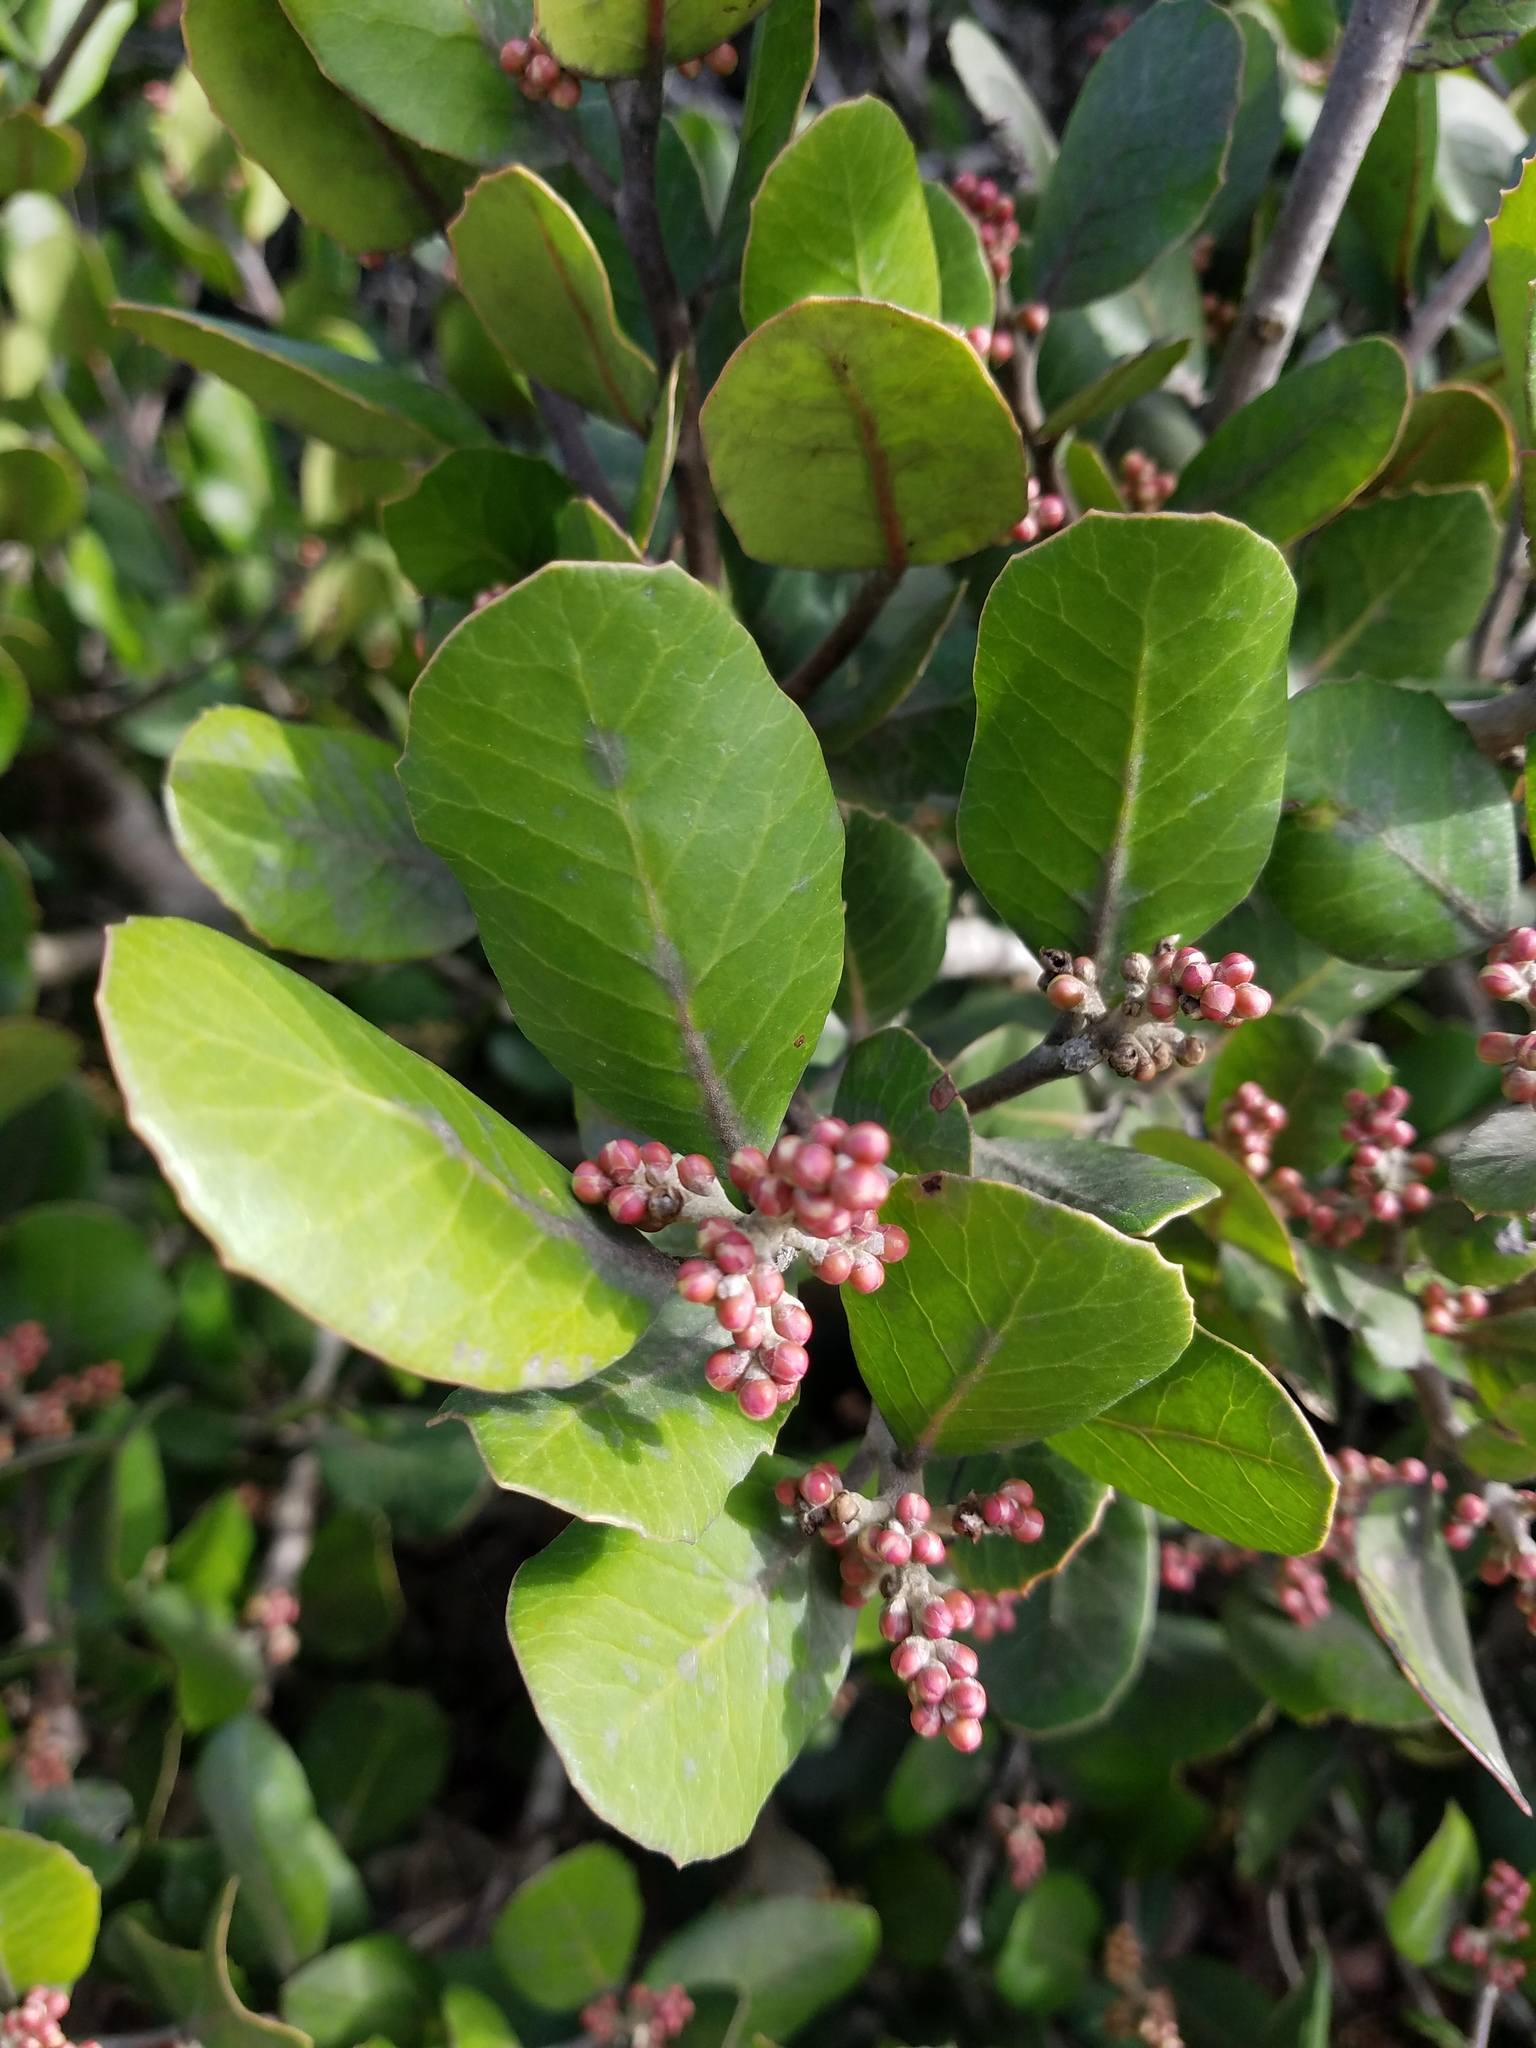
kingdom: Plantae
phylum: Tracheophyta
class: Magnoliopsida
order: Sapindales
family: Anacardiaceae
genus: Rhus
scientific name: Rhus integrifolia
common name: Lemonade sumac
